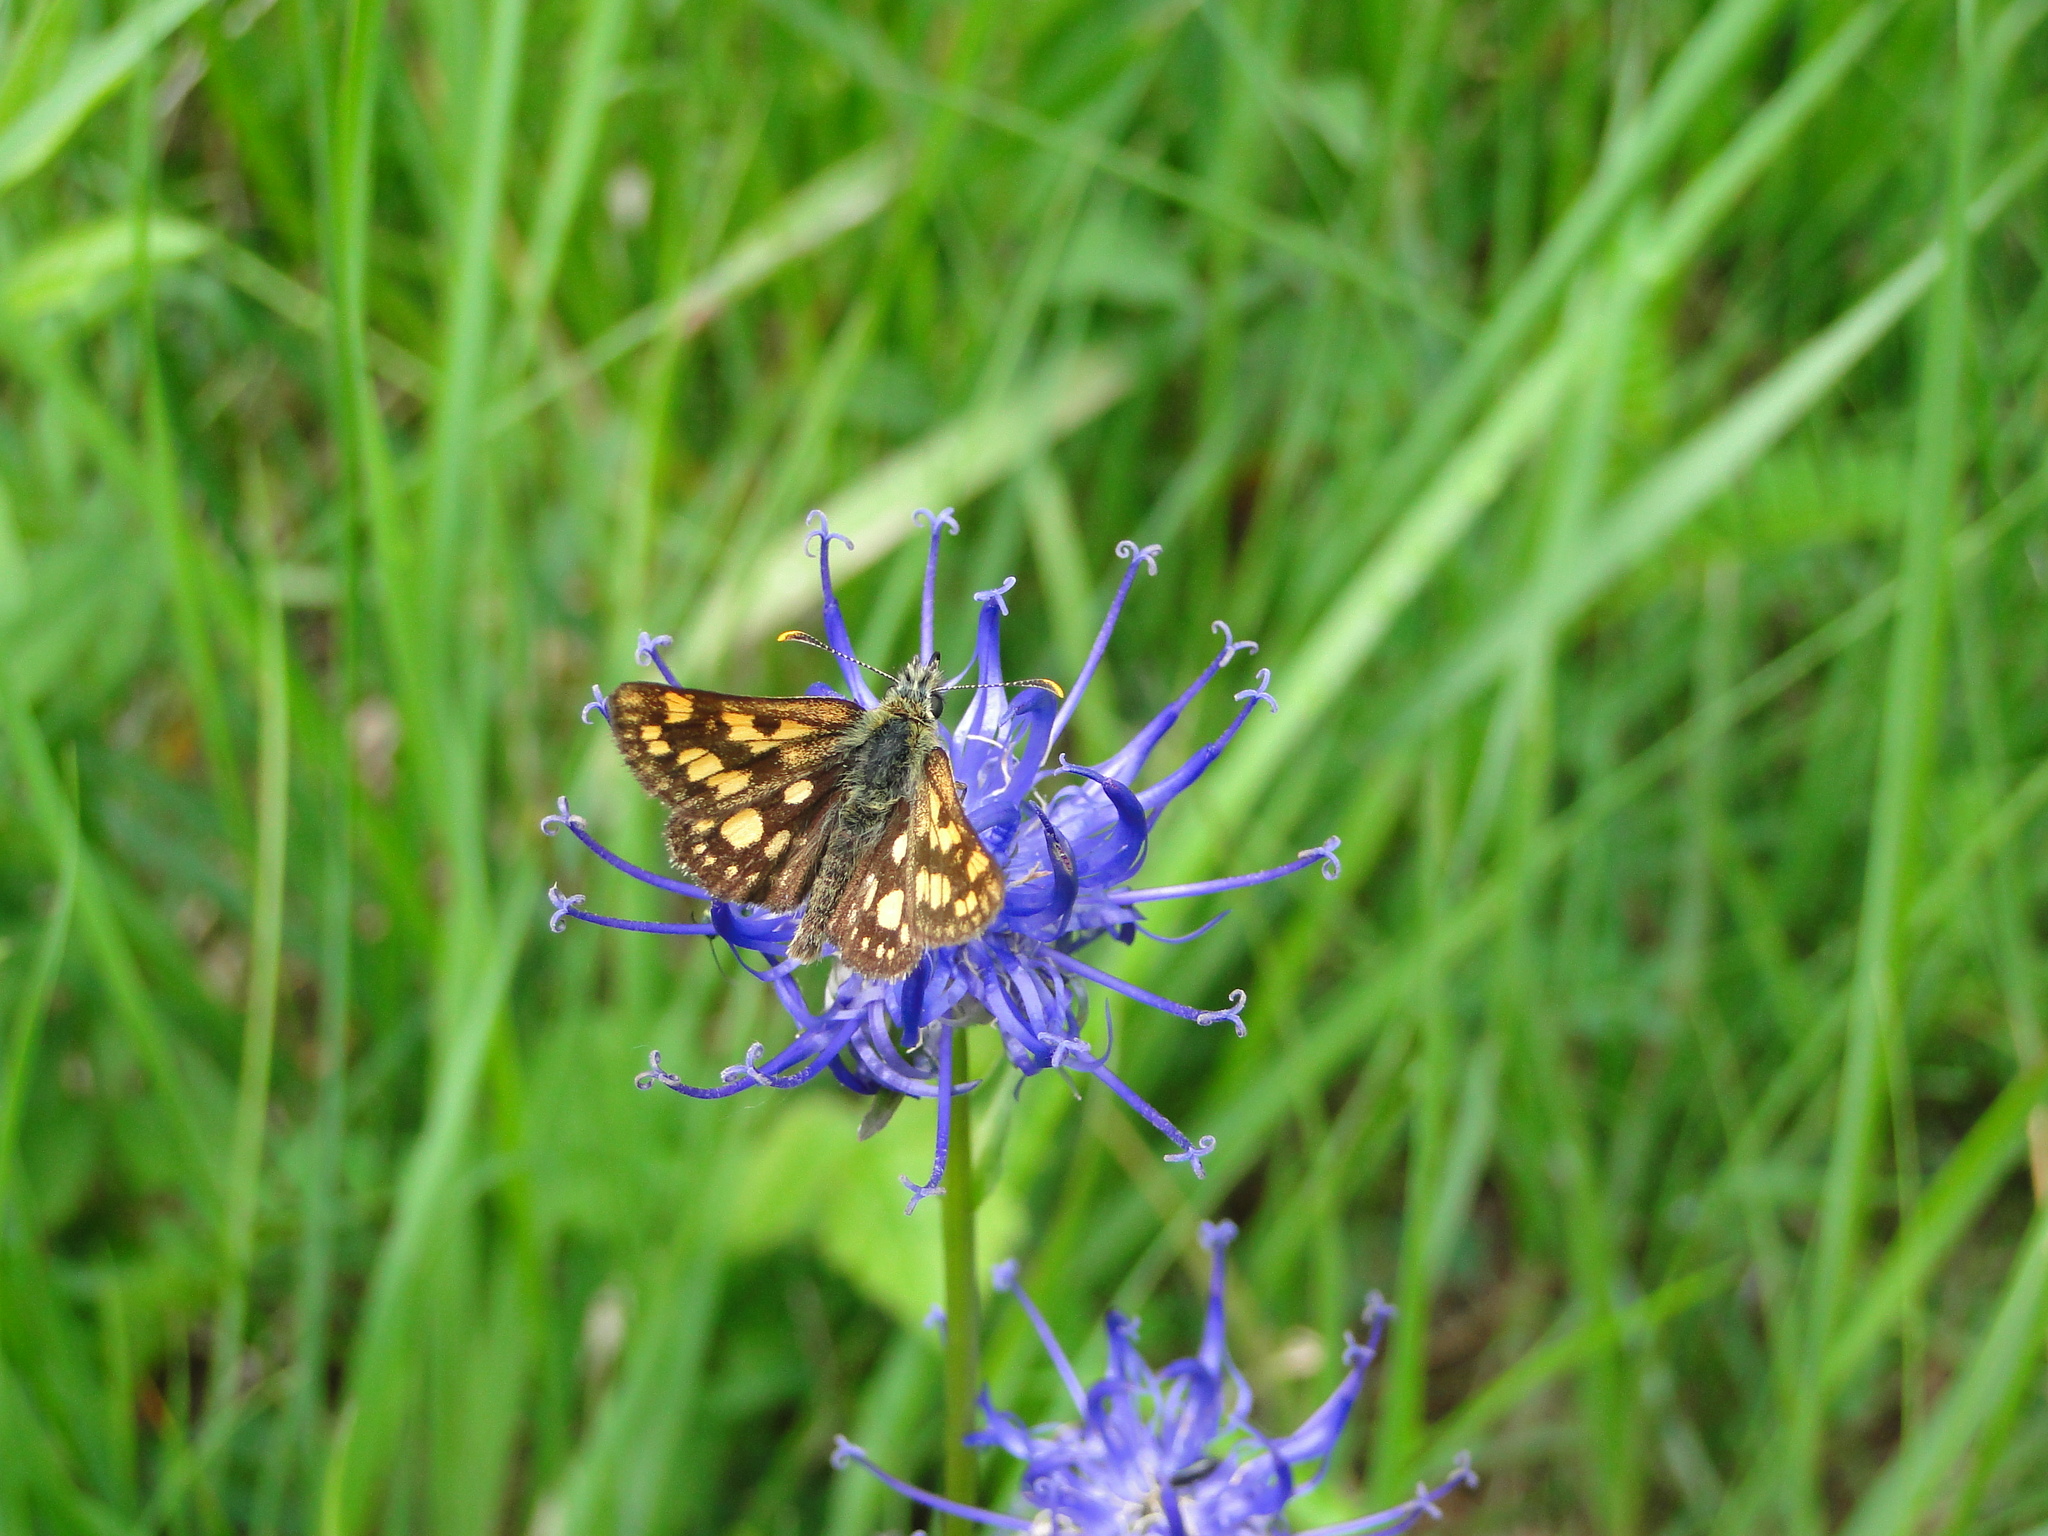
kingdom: Animalia
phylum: Arthropoda
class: Insecta
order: Lepidoptera
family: Hesperiidae
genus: Carterocephalus
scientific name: Carterocephalus palaemon
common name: Chequered skipper
